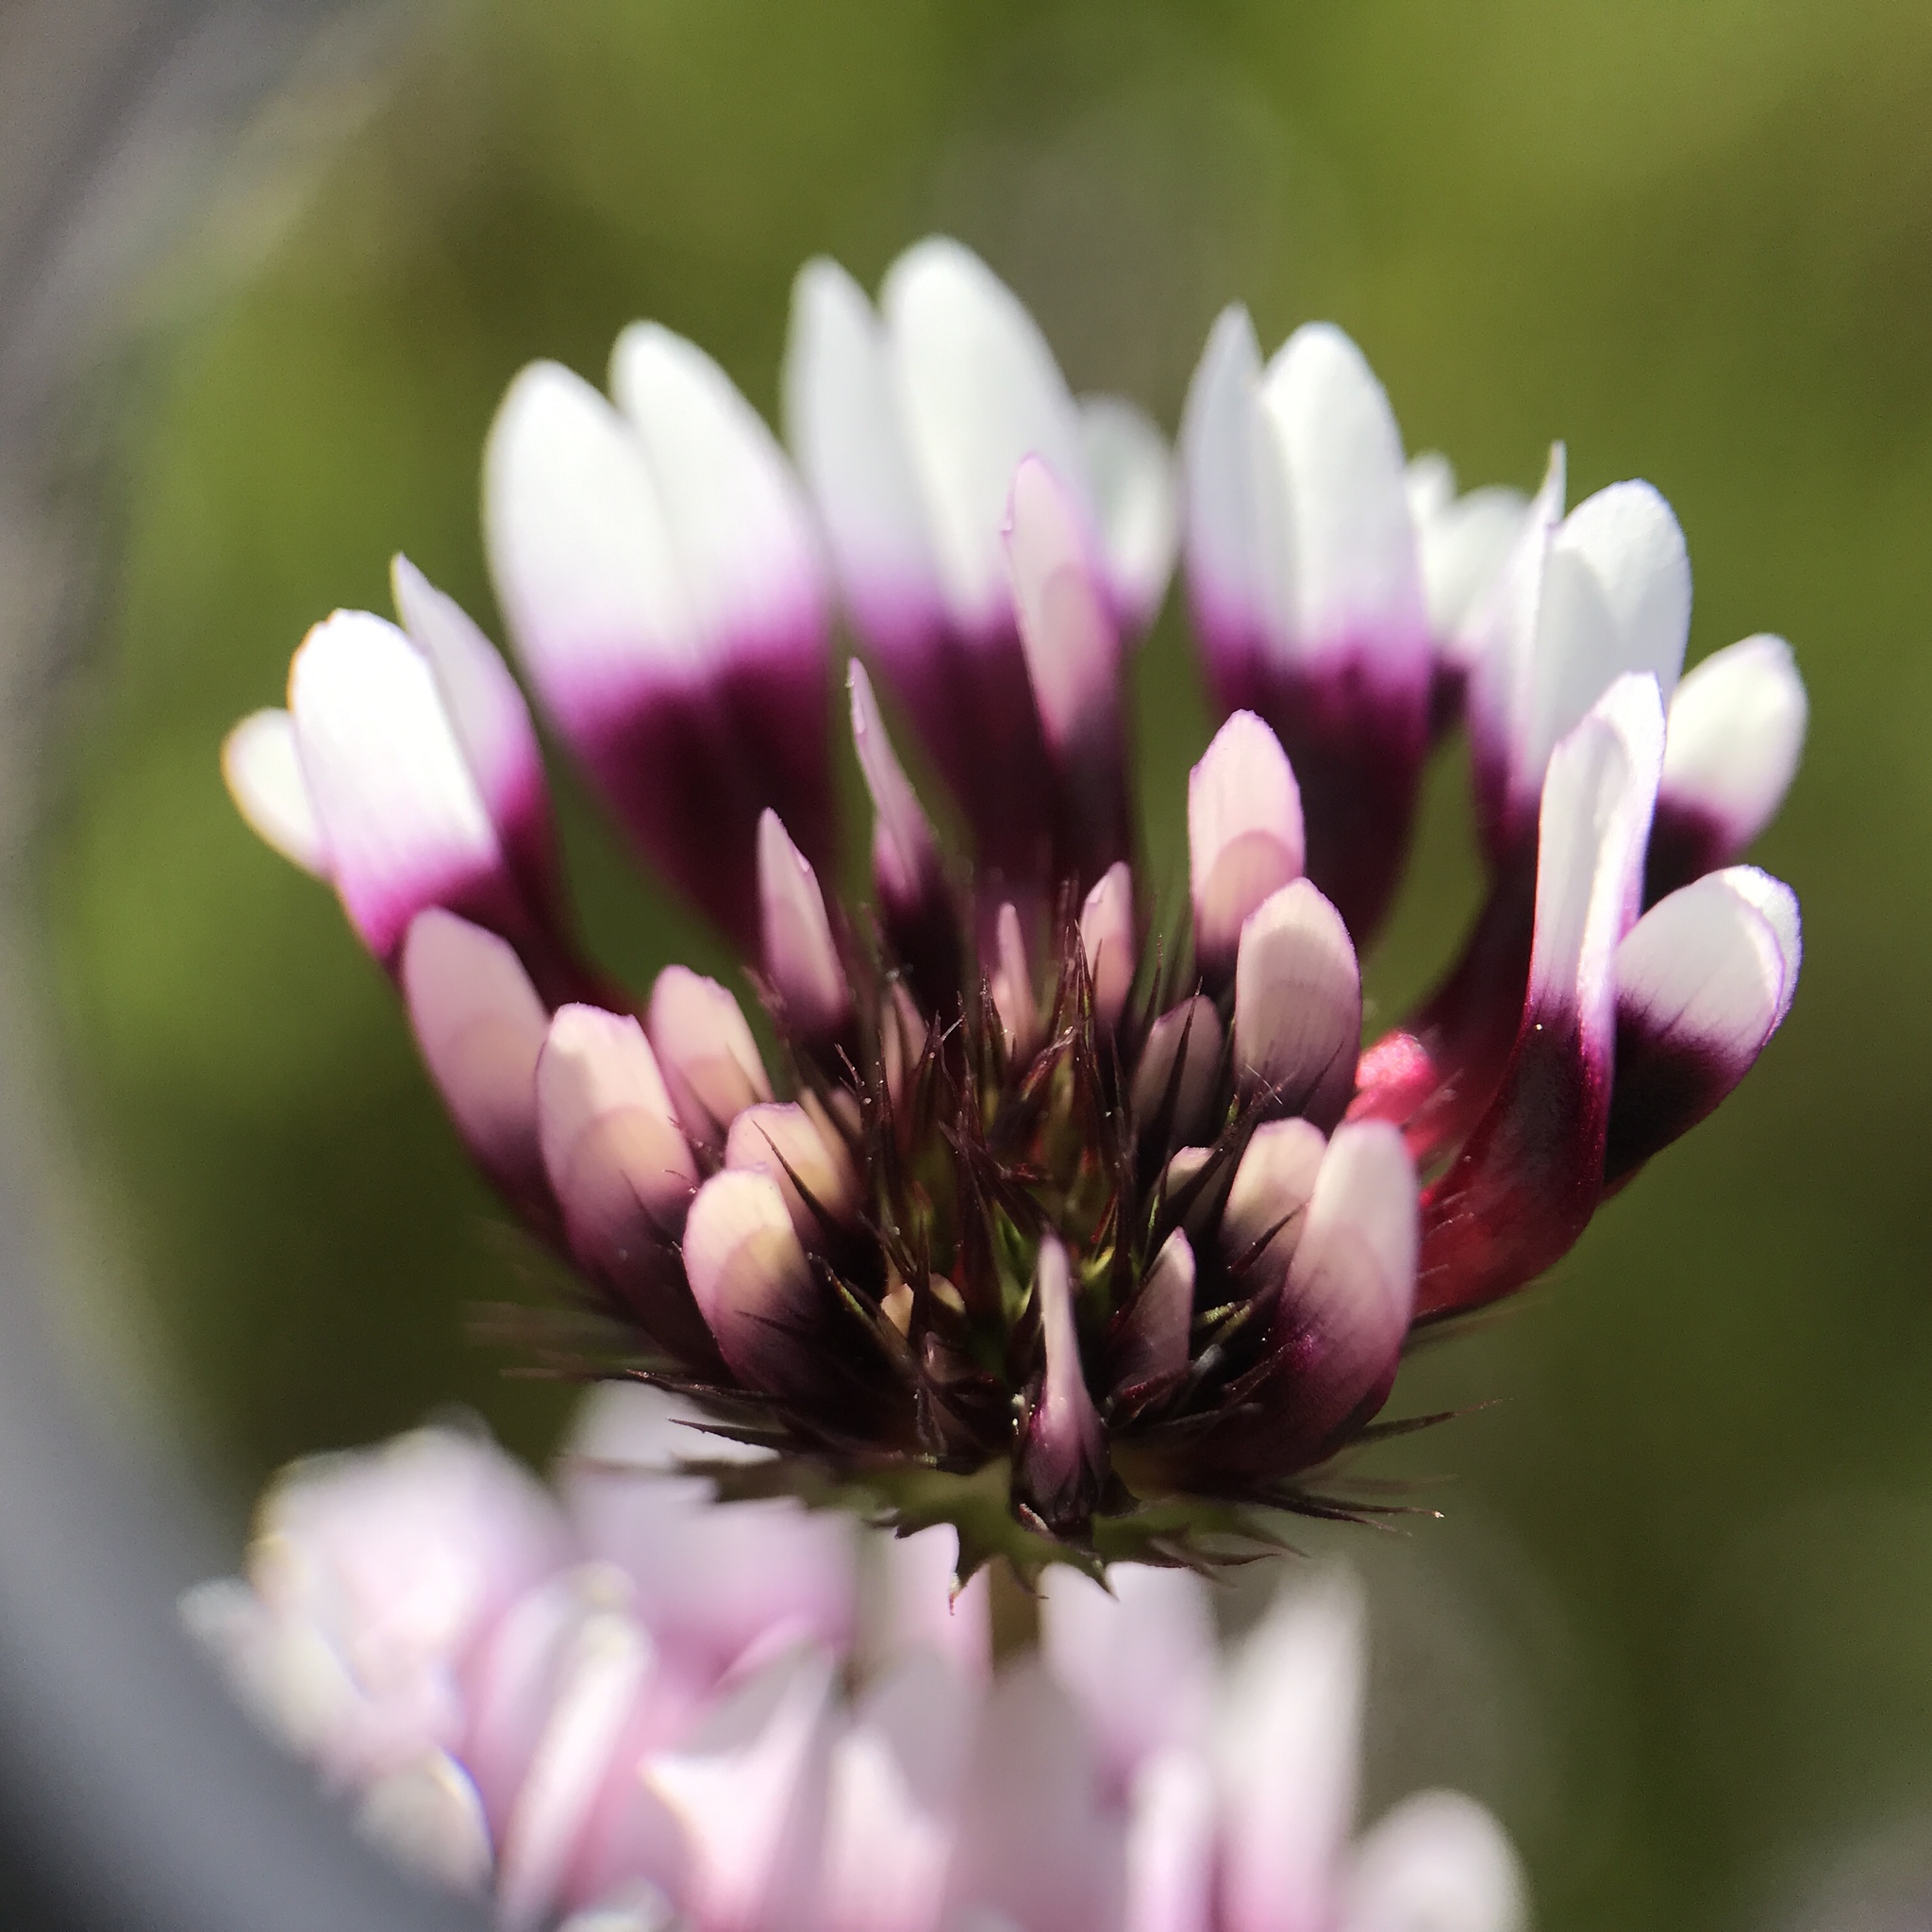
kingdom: Plantae
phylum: Tracheophyta
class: Magnoliopsida
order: Fabales
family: Fabaceae
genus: Trifolium
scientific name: Trifolium variegatum
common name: Whitetip clover
